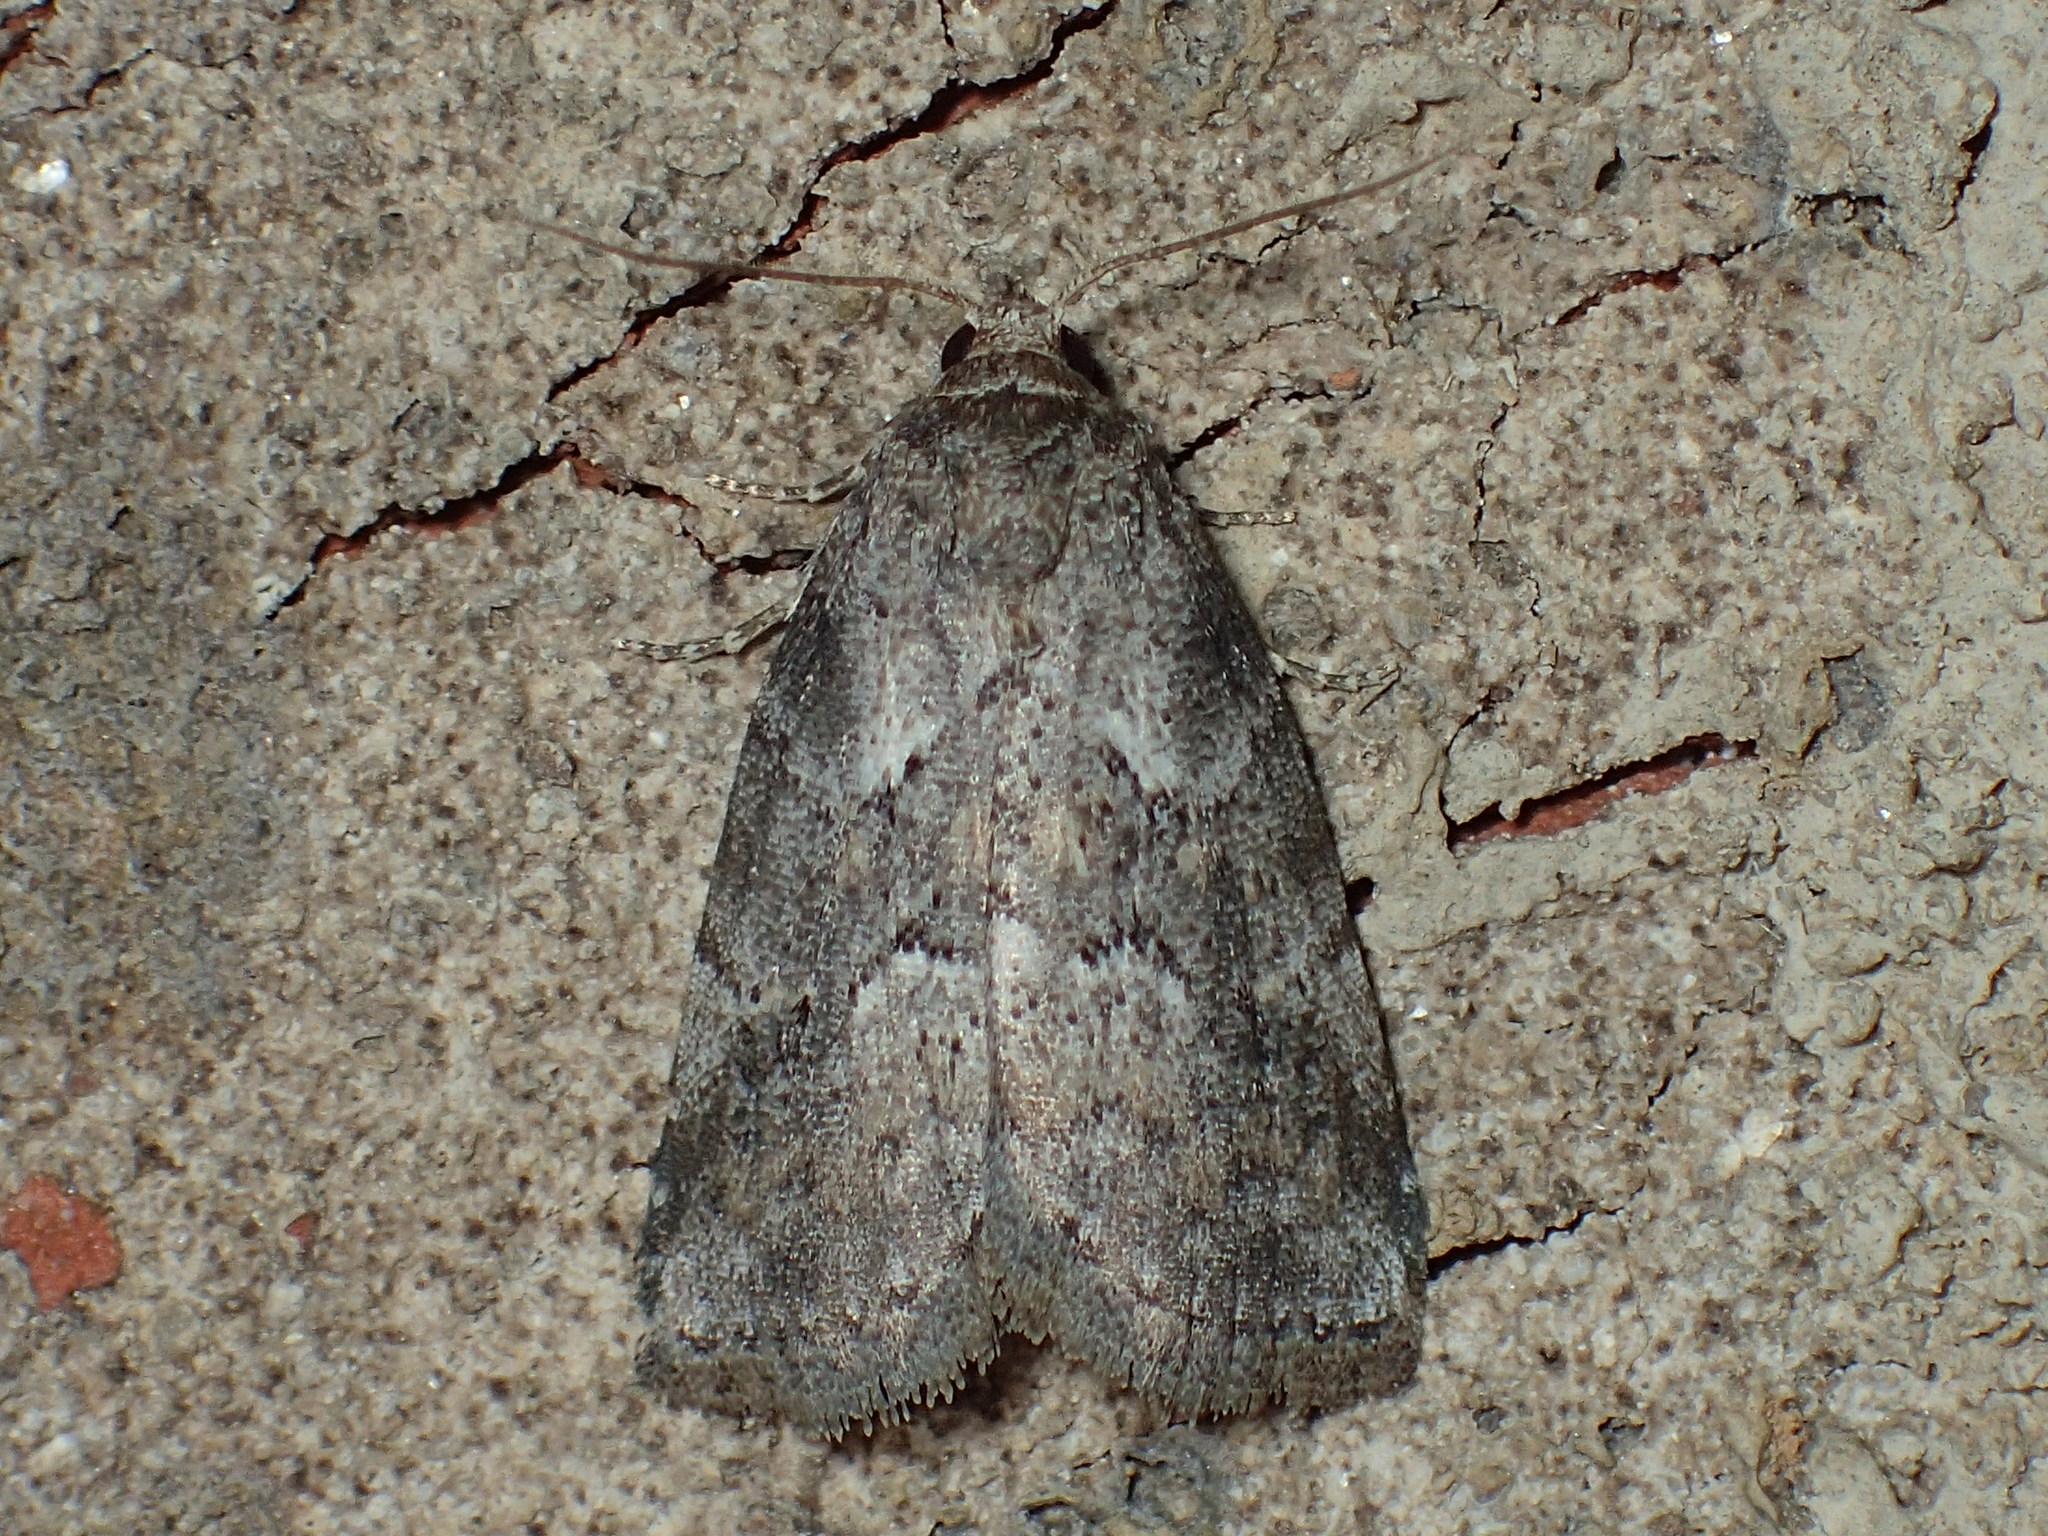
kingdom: Animalia
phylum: Arthropoda
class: Insecta
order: Lepidoptera
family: Erebidae
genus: Hyperstrotia
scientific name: Hyperstrotia nana
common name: White-lined graylet
